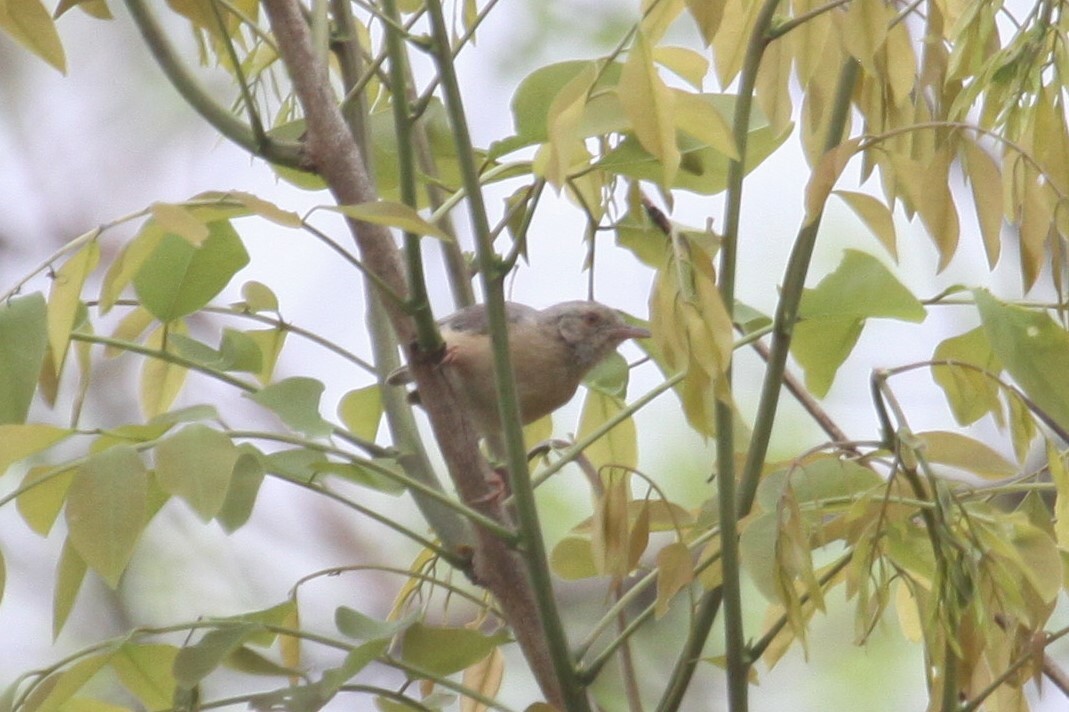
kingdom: Animalia
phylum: Chordata
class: Aves
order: Passeriformes
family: Macrosphenidae
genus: Sylvietta
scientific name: Sylvietta whytii
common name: Red-faced crombec
